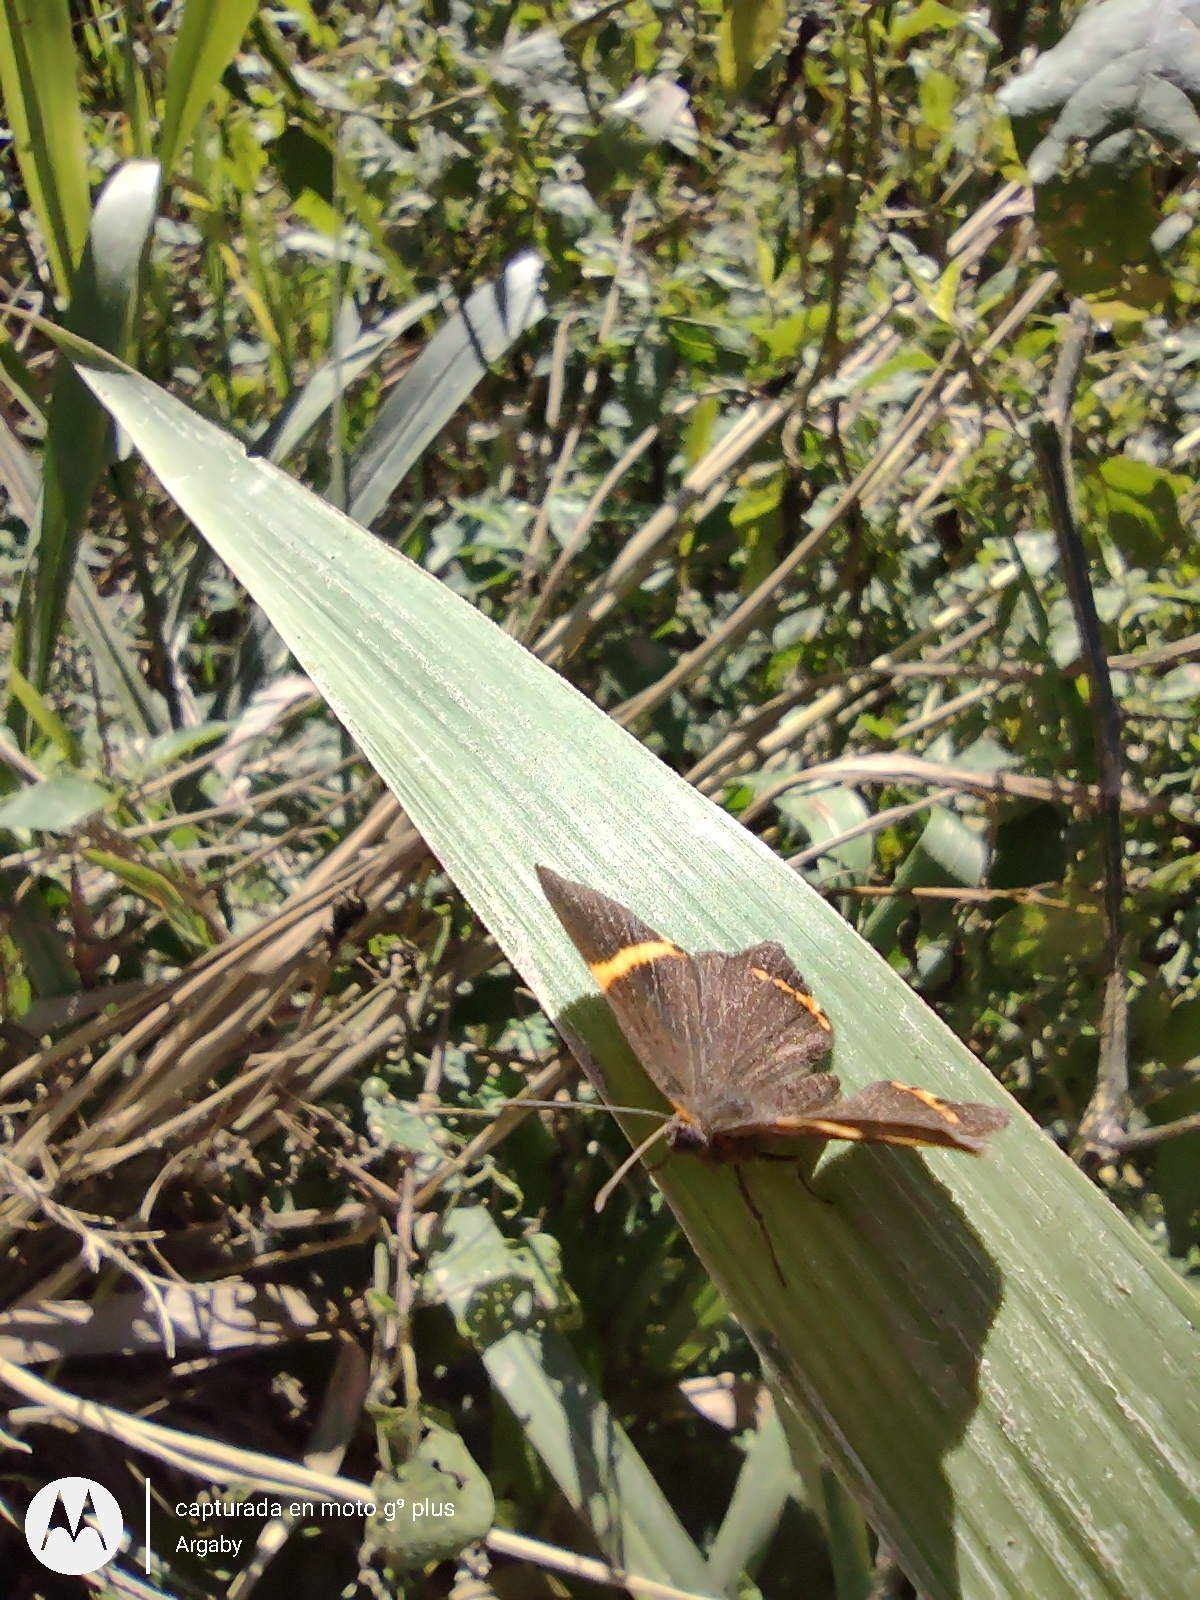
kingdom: Animalia
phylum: Arthropoda
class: Insecta
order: Lepidoptera
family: Riodinidae
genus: Riodina
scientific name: Riodina lysippoides
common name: Little dancer metalmark
